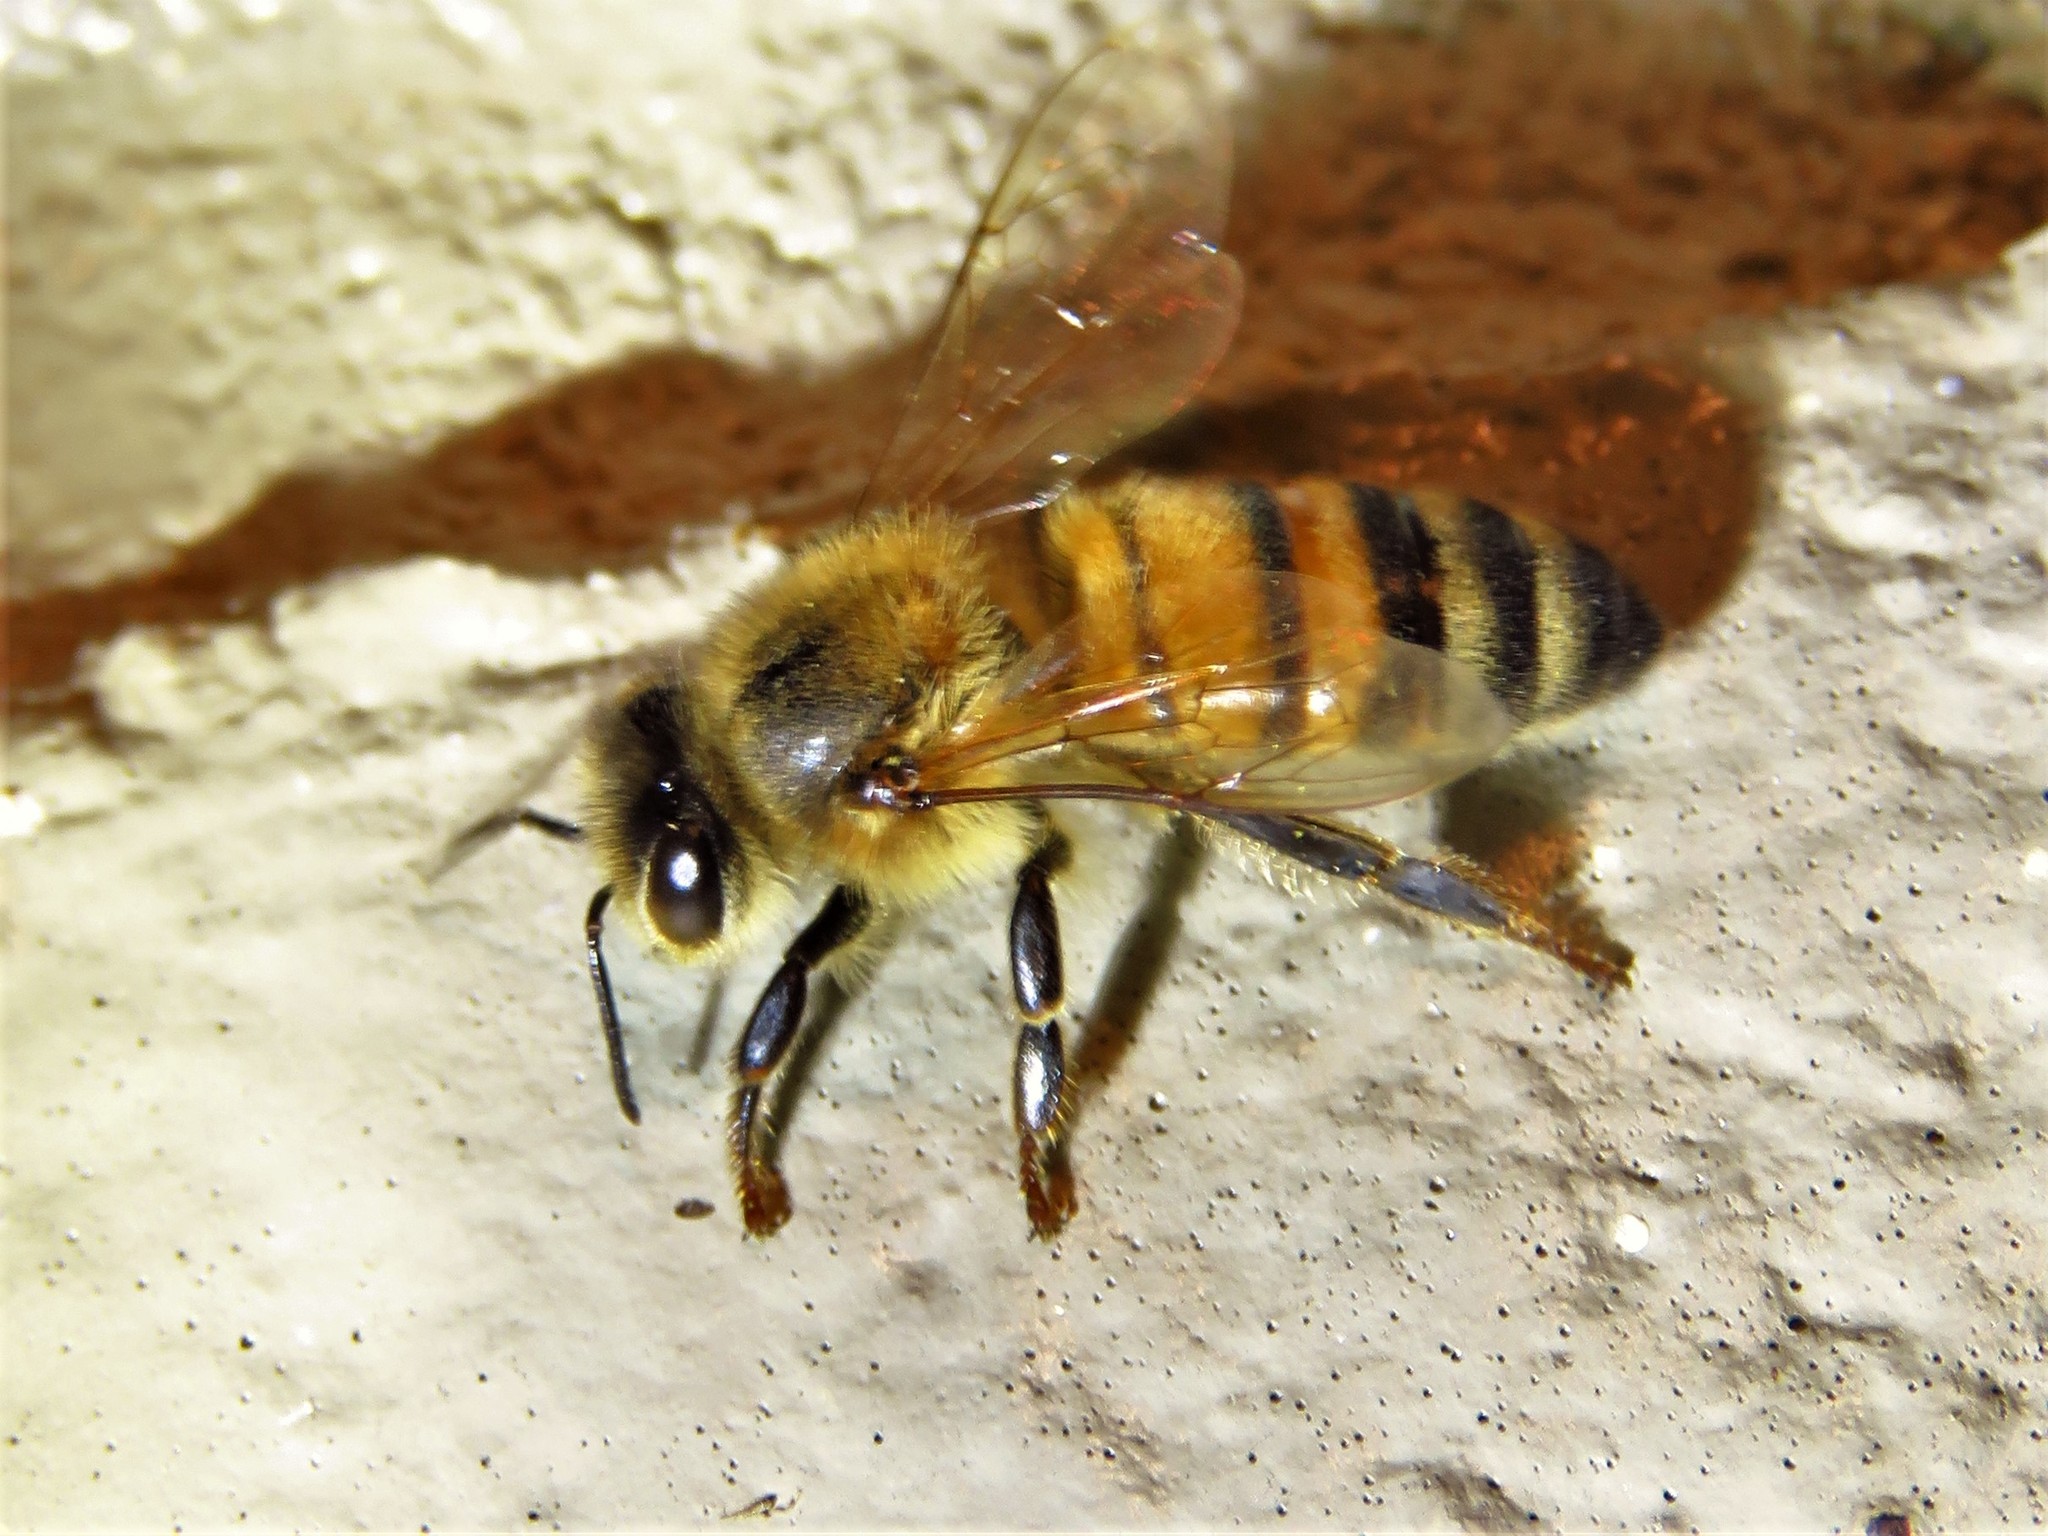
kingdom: Animalia
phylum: Arthropoda
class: Insecta
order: Hymenoptera
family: Apidae
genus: Apis
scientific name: Apis mellifera
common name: Honey bee
